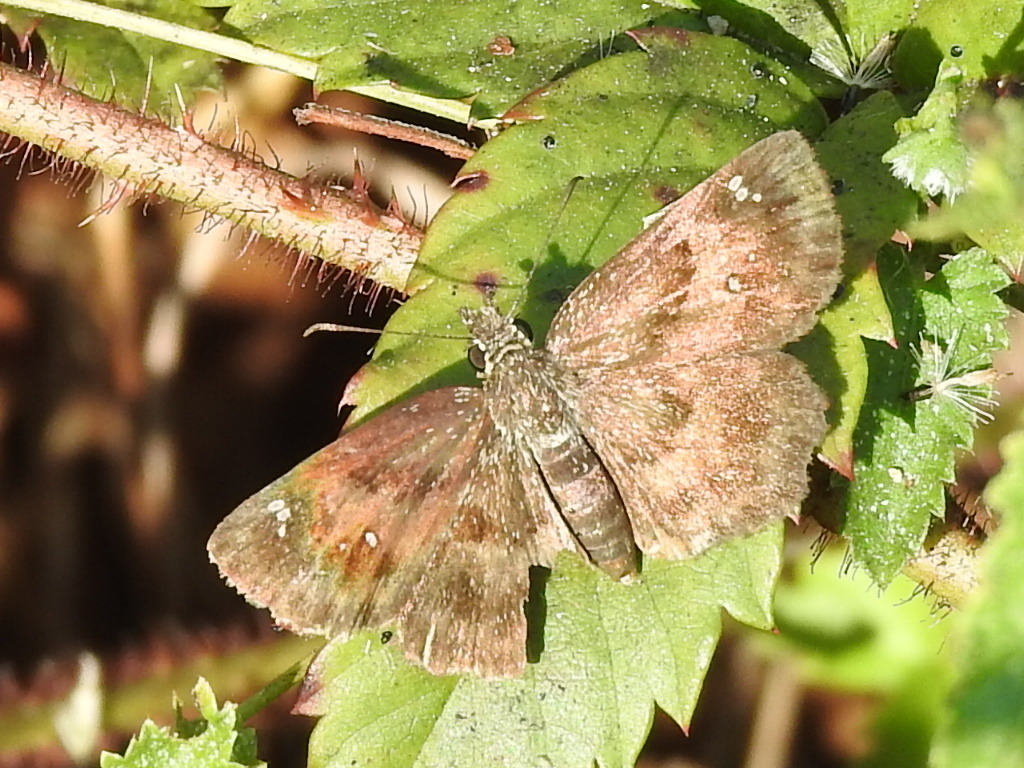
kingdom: Animalia
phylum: Arthropoda
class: Insecta
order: Lepidoptera
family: Hesperiidae
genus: Staphylus
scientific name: Staphylus mazans
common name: Mazans scallopwing
